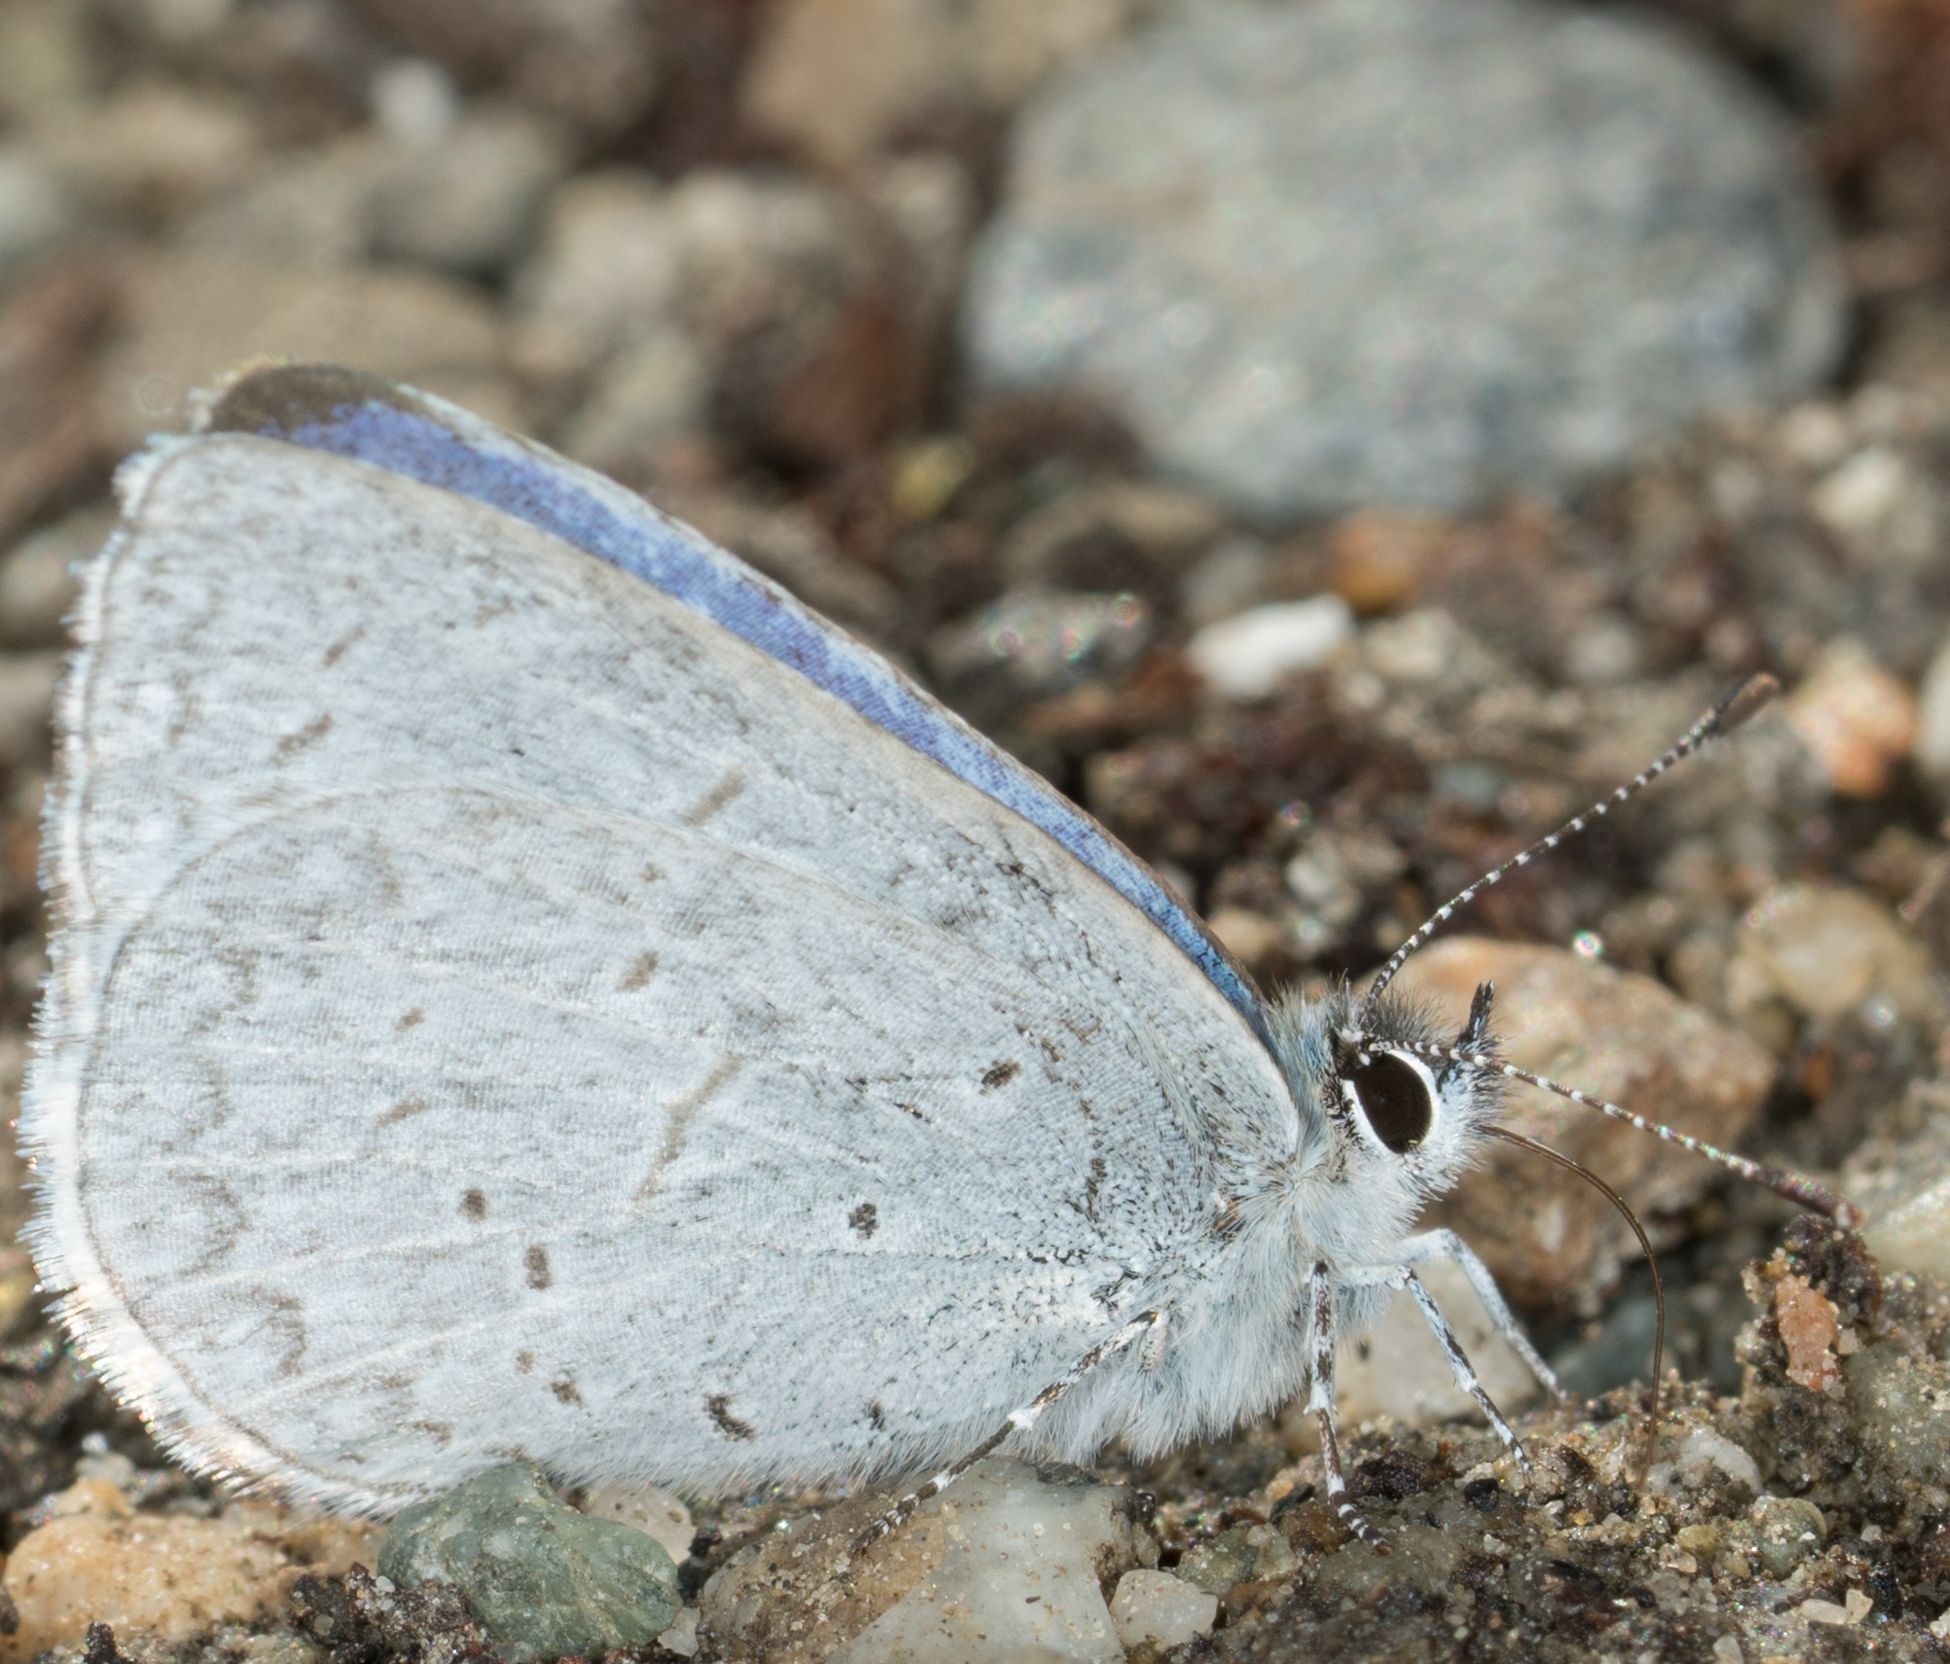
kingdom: Animalia
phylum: Arthropoda
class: Insecta
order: Lepidoptera
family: Lycaenidae
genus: Celastrina
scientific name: Celastrina ladon
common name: Spring azure
